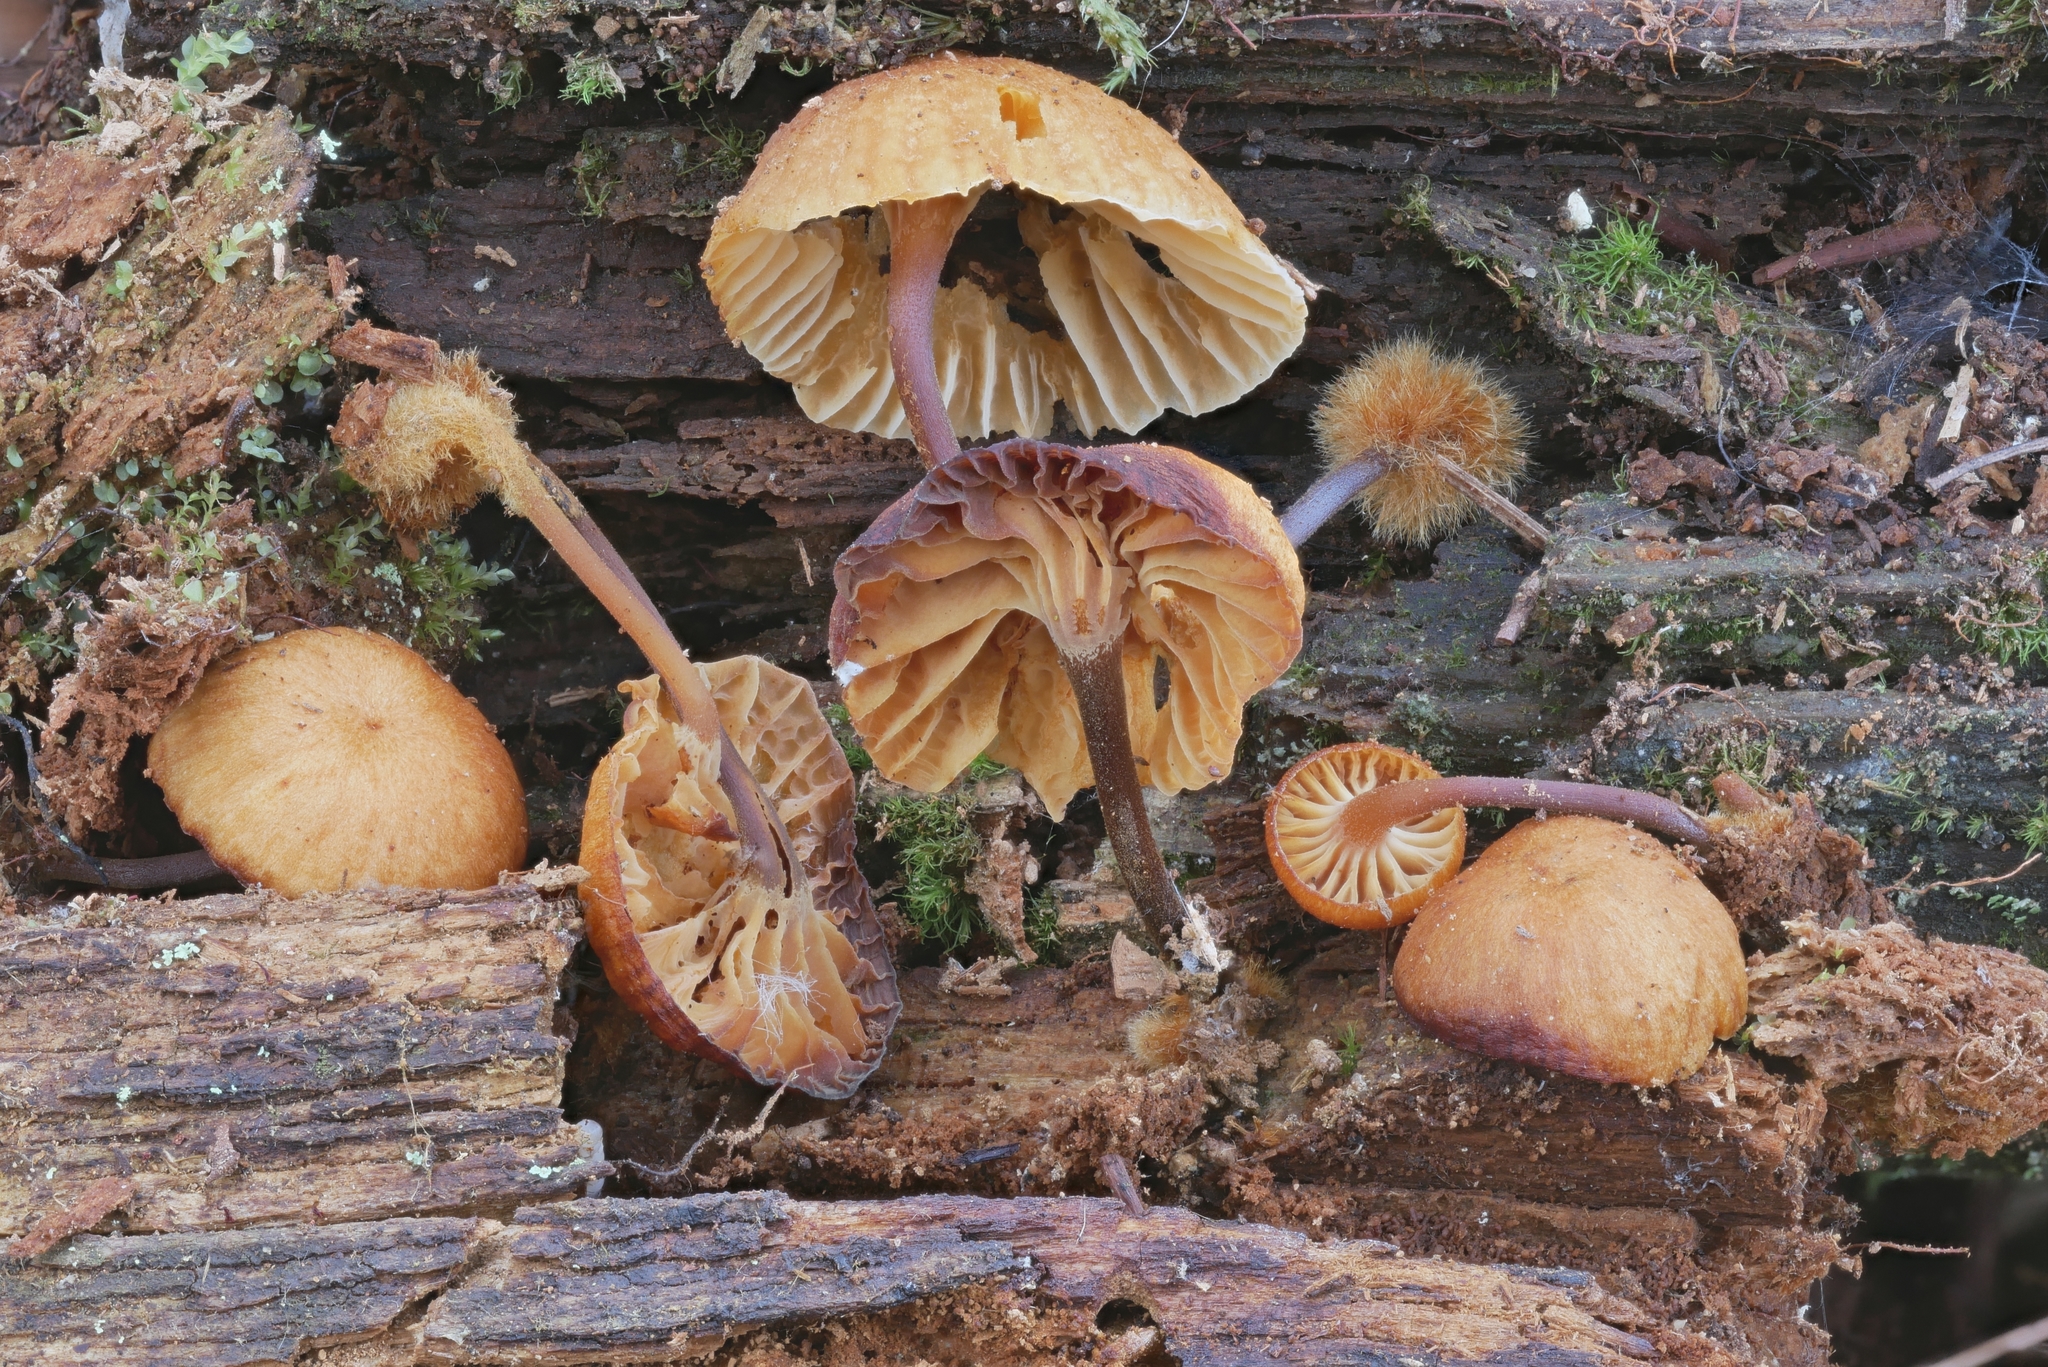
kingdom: Fungi
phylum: Basidiomycota
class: Agaricomycetes
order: Agaricales
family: Mycenaceae
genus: Xeromphalina
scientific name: Xeromphalina campanella
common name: Pinewood gingertail
